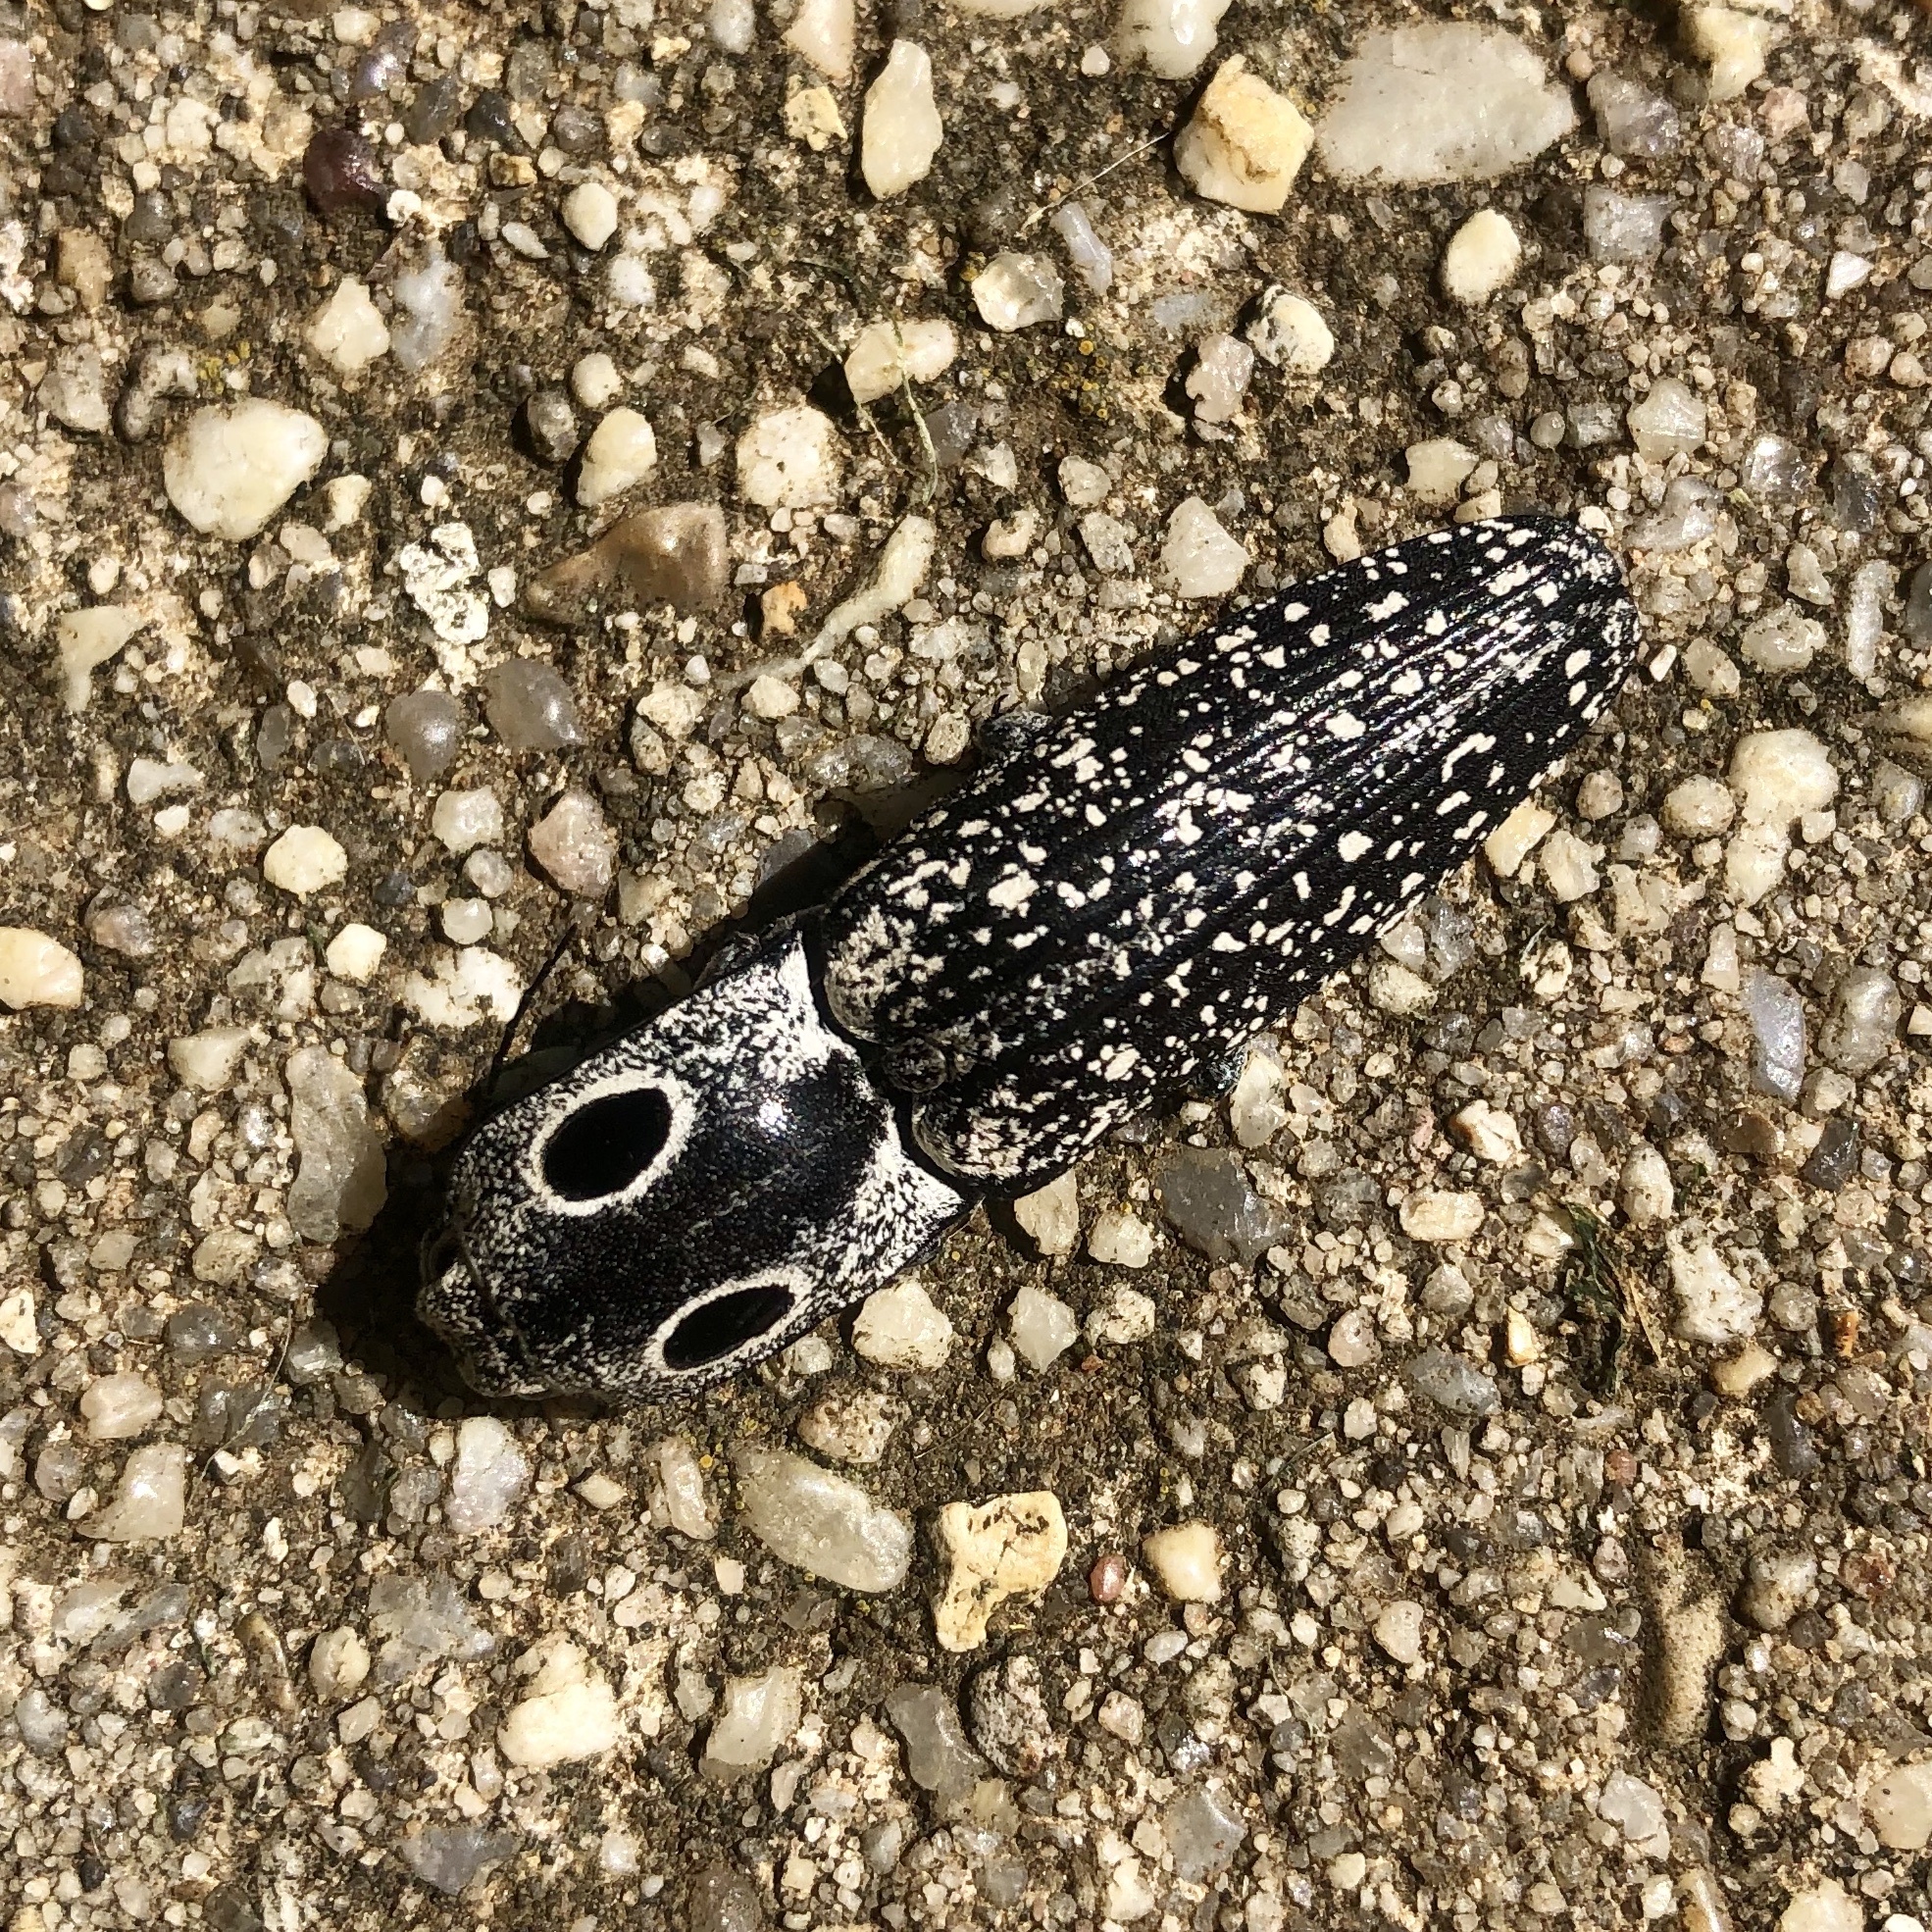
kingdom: Animalia
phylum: Arthropoda
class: Insecta
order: Coleoptera
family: Elateridae
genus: Alaus
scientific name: Alaus oculatus
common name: Eastern eyed click beetle
